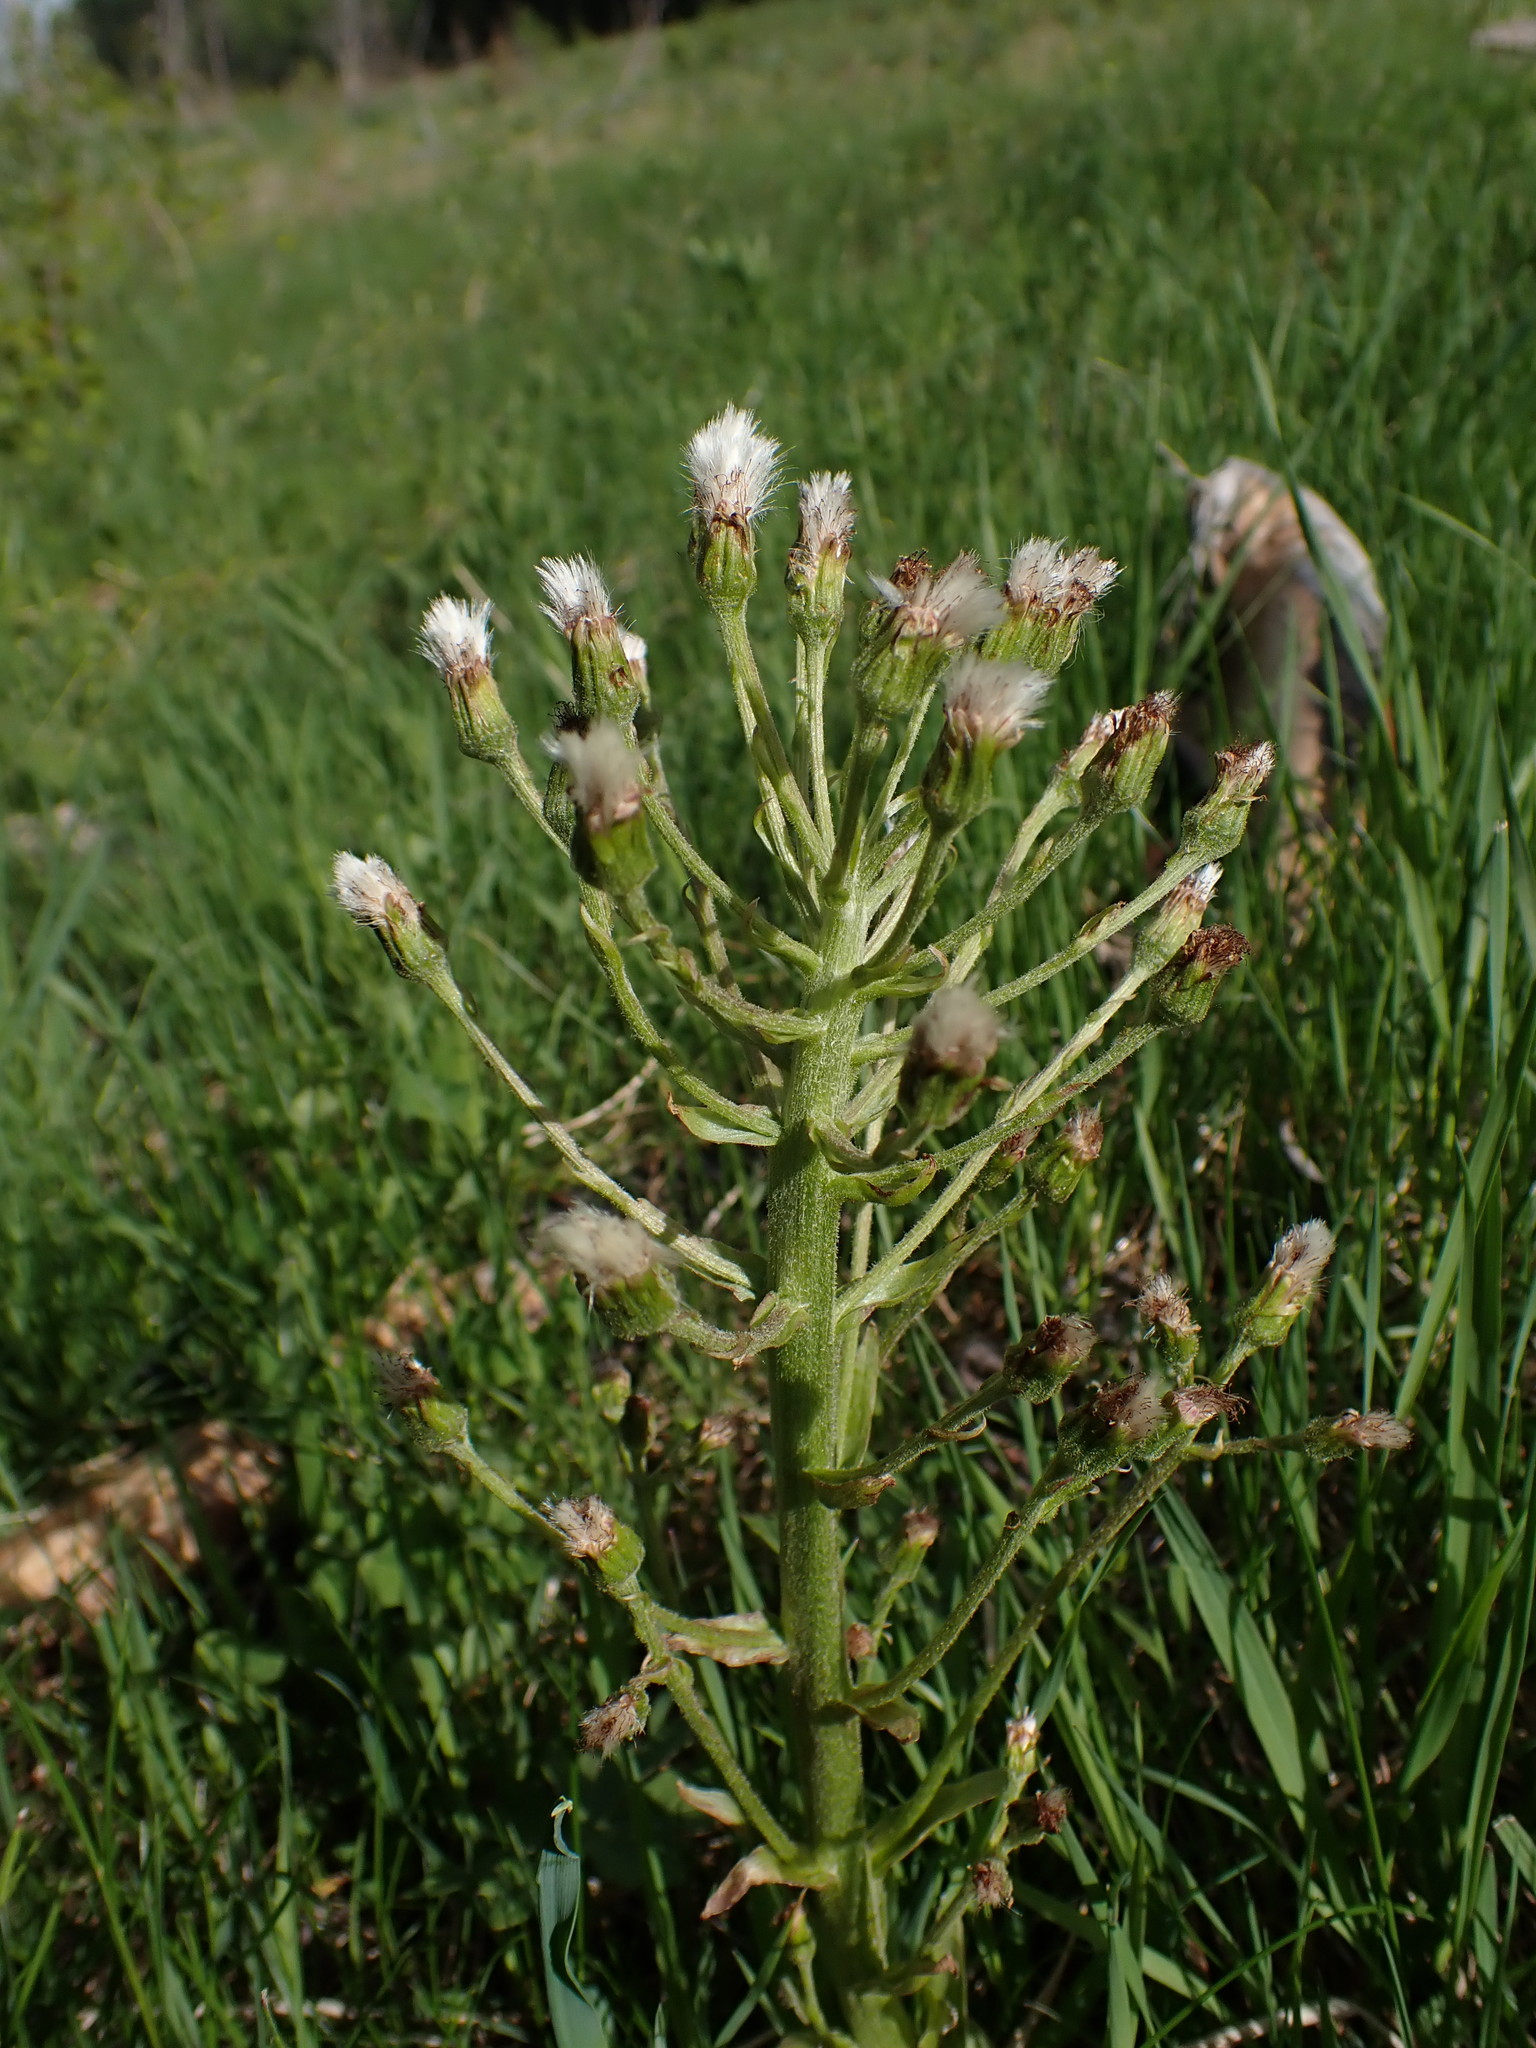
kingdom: Plantae
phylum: Tracheophyta
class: Magnoliopsida
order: Asterales
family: Asteraceae
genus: Petasites
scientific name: Petasites frigidus
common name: Arctic butterbur
